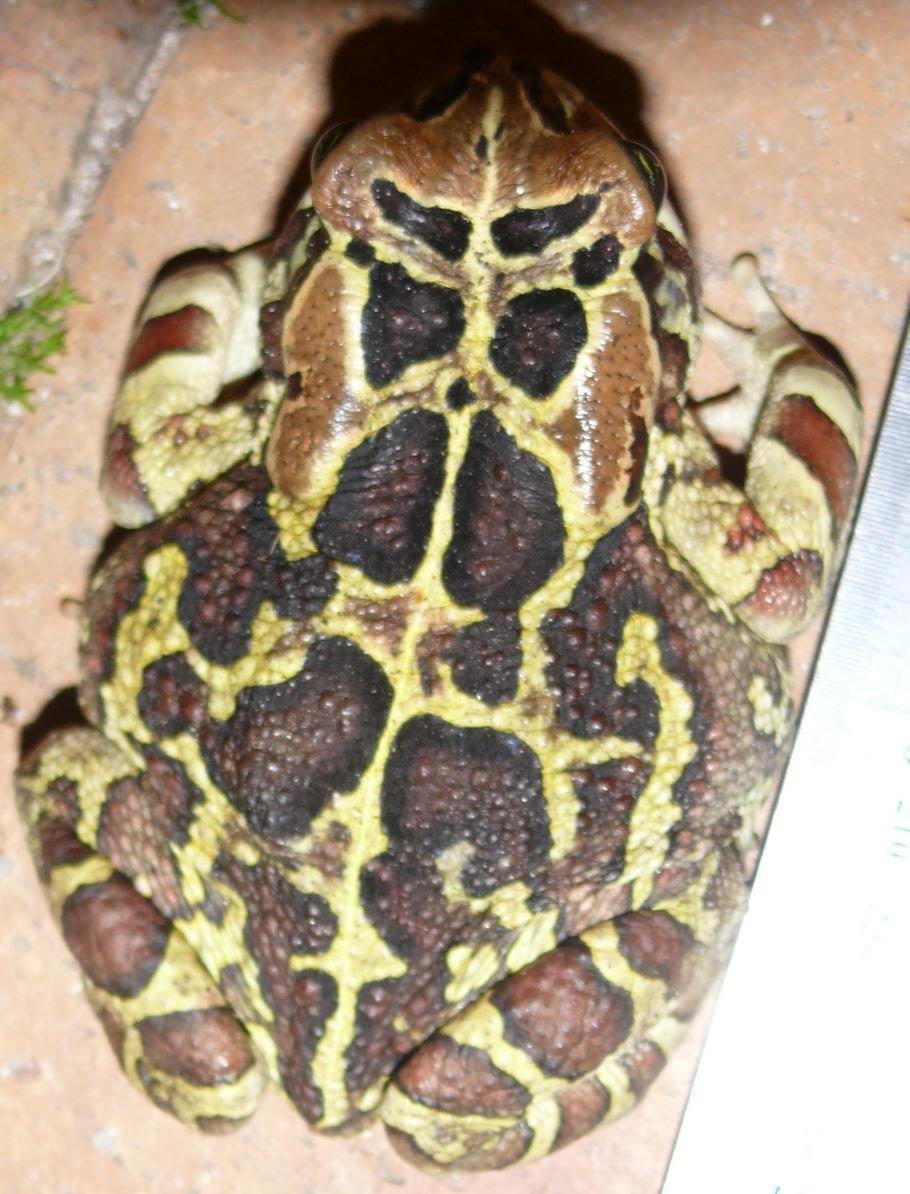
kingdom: Animalia
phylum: Chordata
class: Amphibia
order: Anura
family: Bufonidae
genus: Sclerophrys
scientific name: Sclerophrys pantherina
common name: Panther toad
